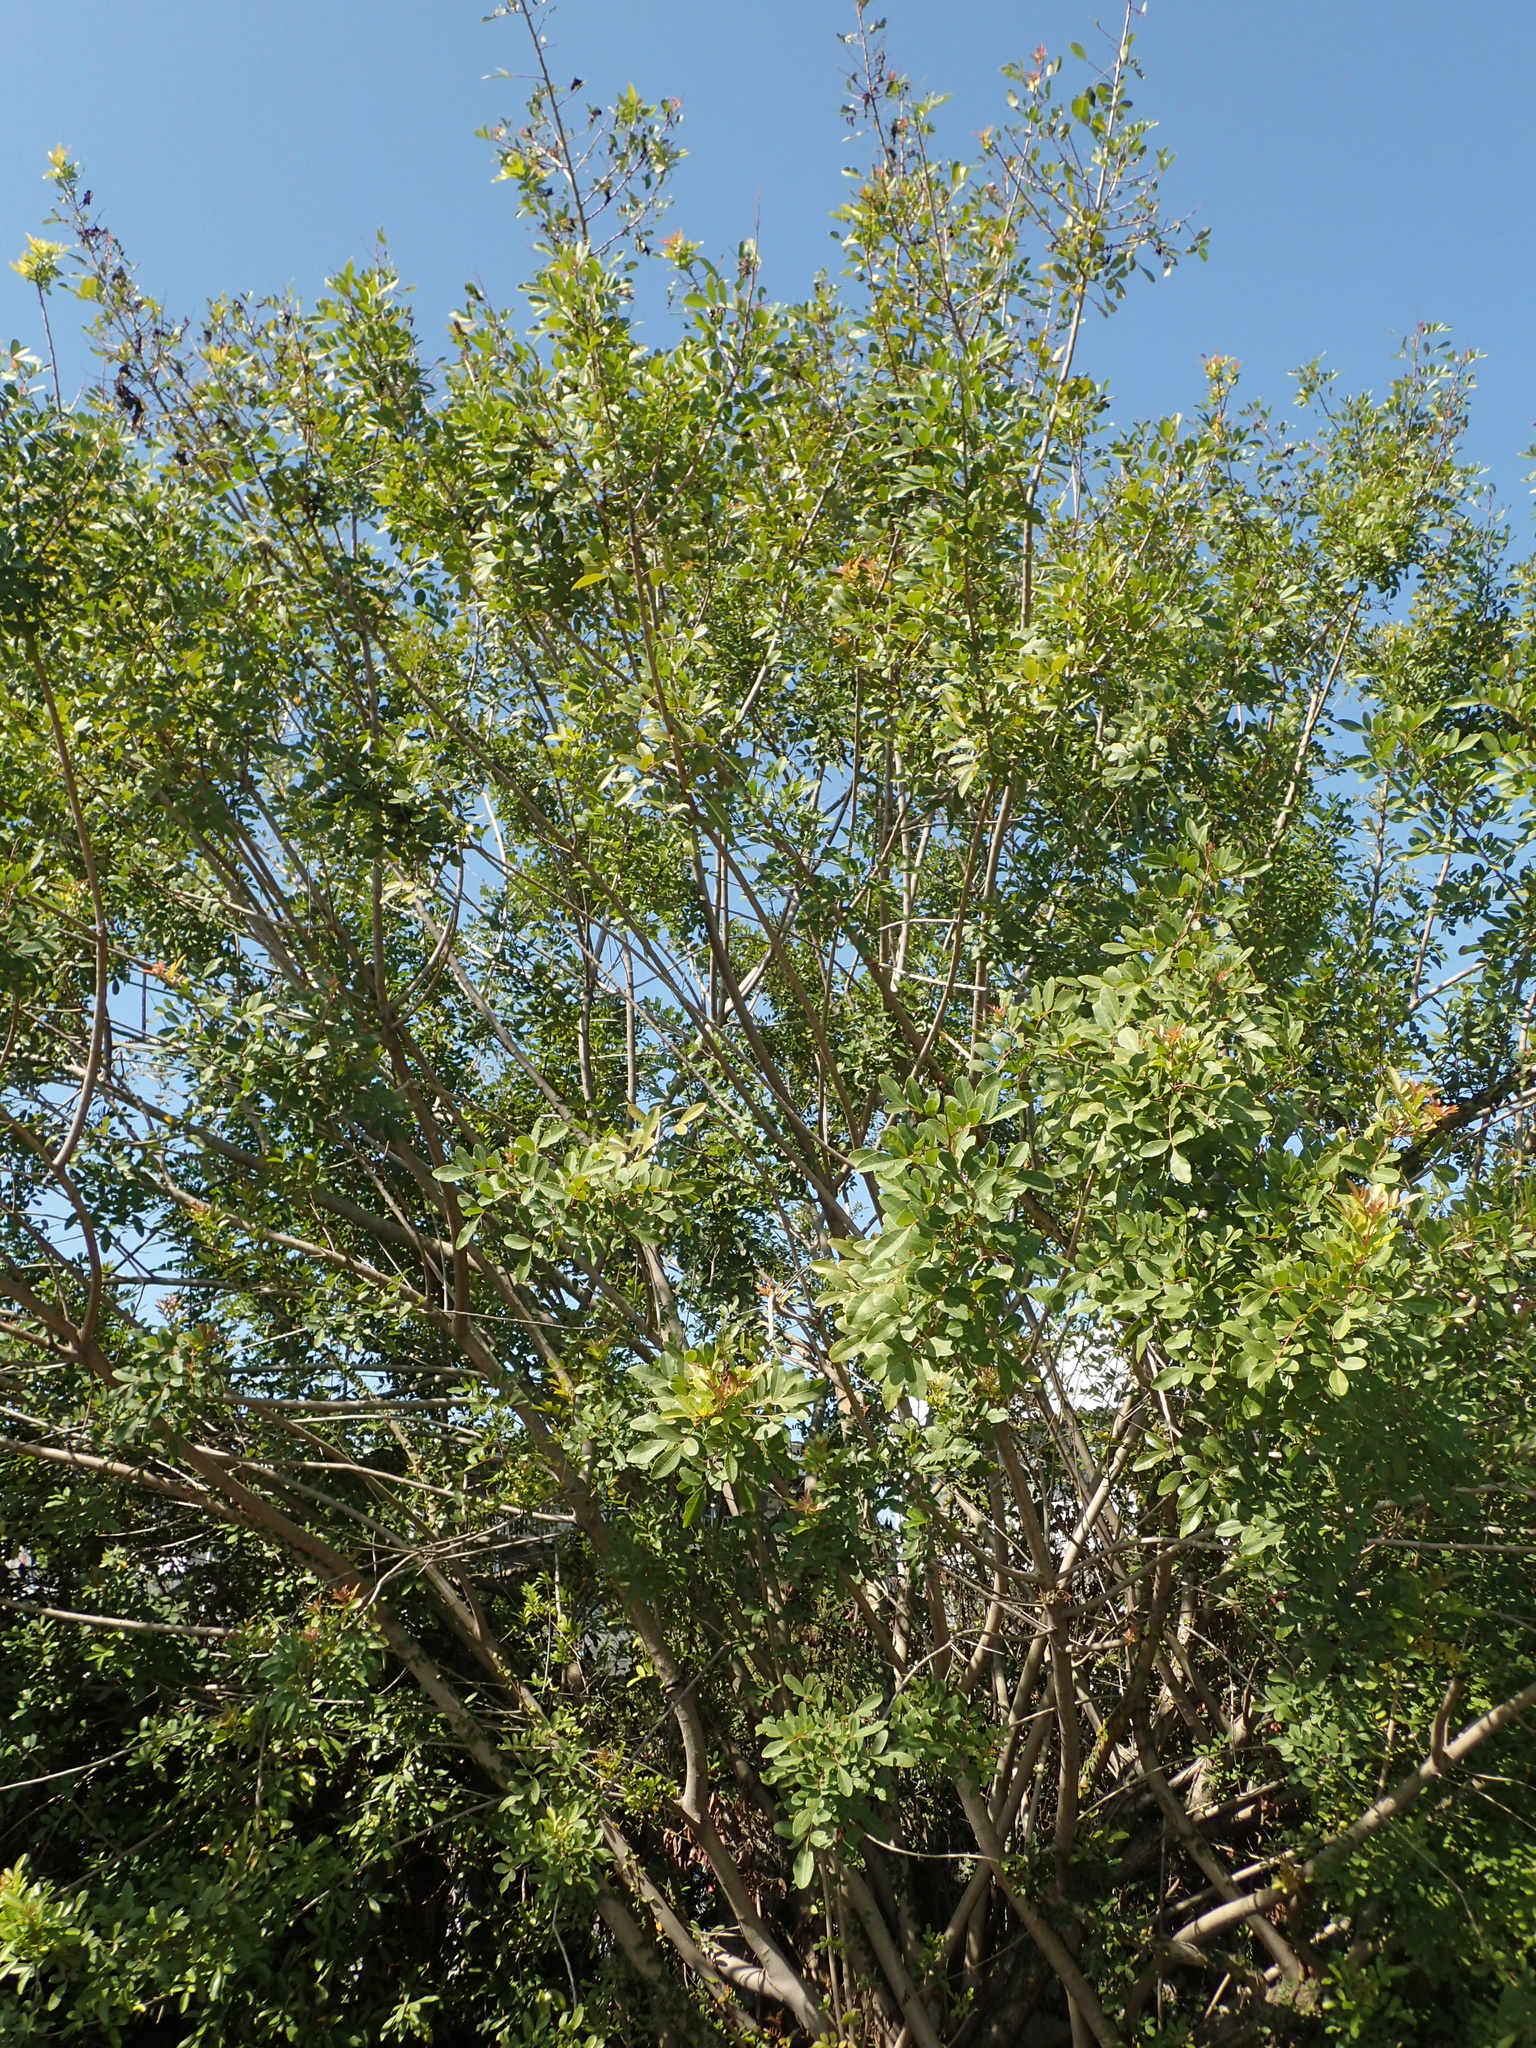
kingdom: Plantae
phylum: Tracheophyta
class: Magnoliopsida
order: Sapindales
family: Anacardiaceae
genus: Schinus
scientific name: Schinus terebinthifolia
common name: Brazilian peppertree
